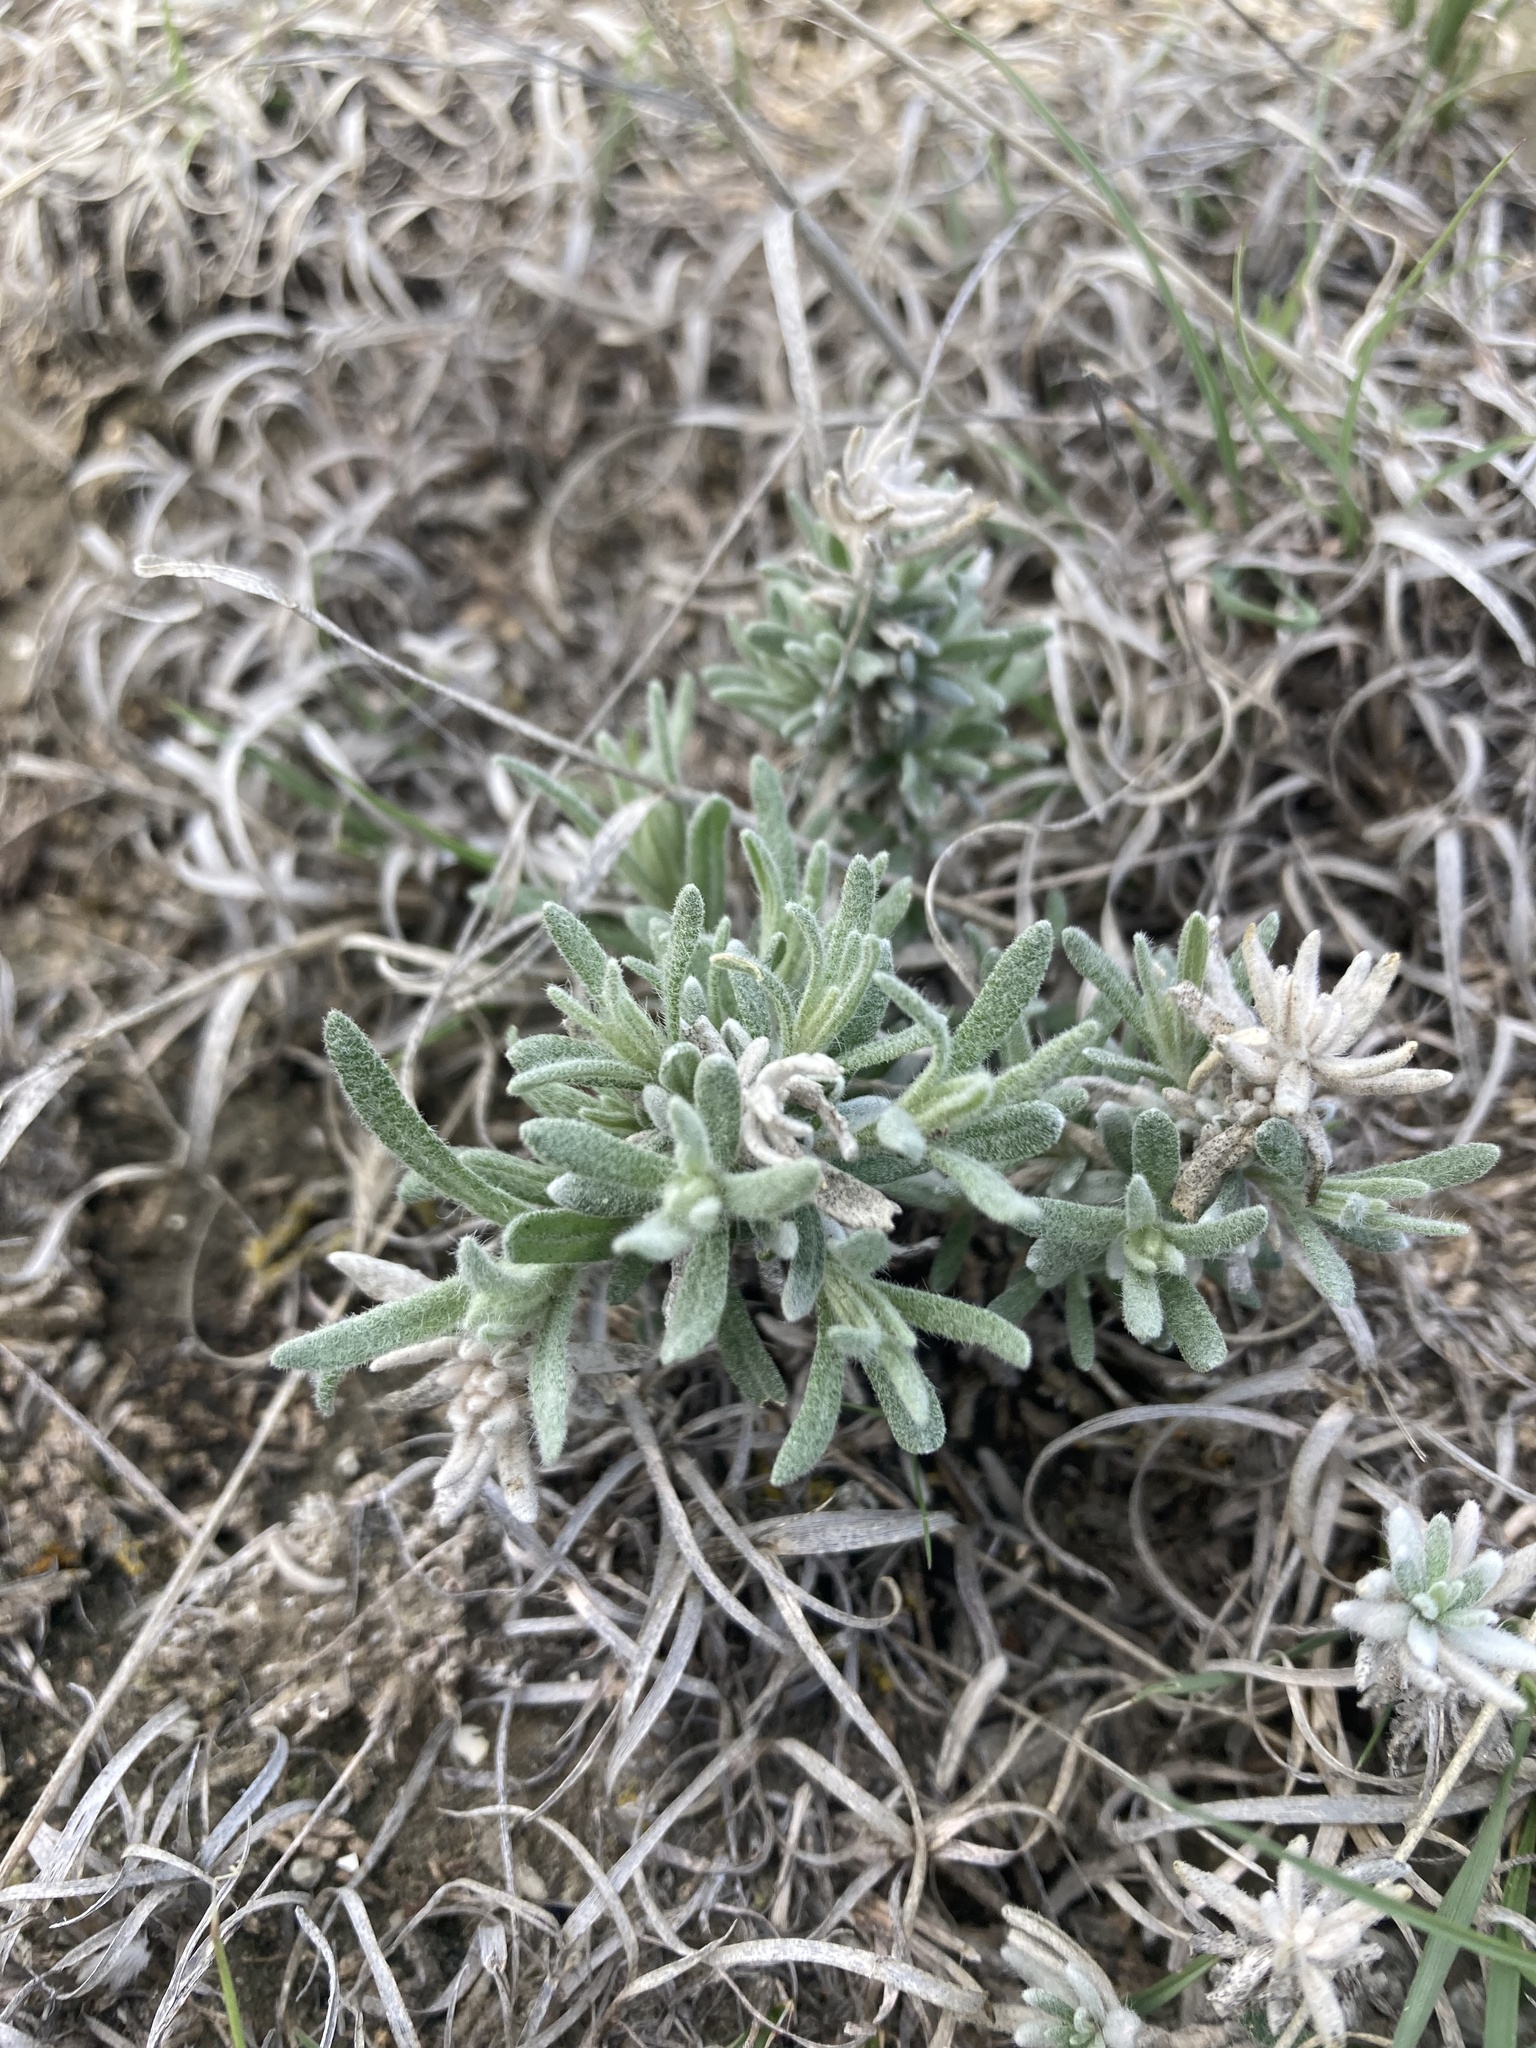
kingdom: Plantae
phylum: Tracheophyta
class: Magnoliopsida
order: Caryophyllales
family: Amaranthaceae
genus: Krascheninnikovia
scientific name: Krascheninnikovia lanata
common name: Winterfat
